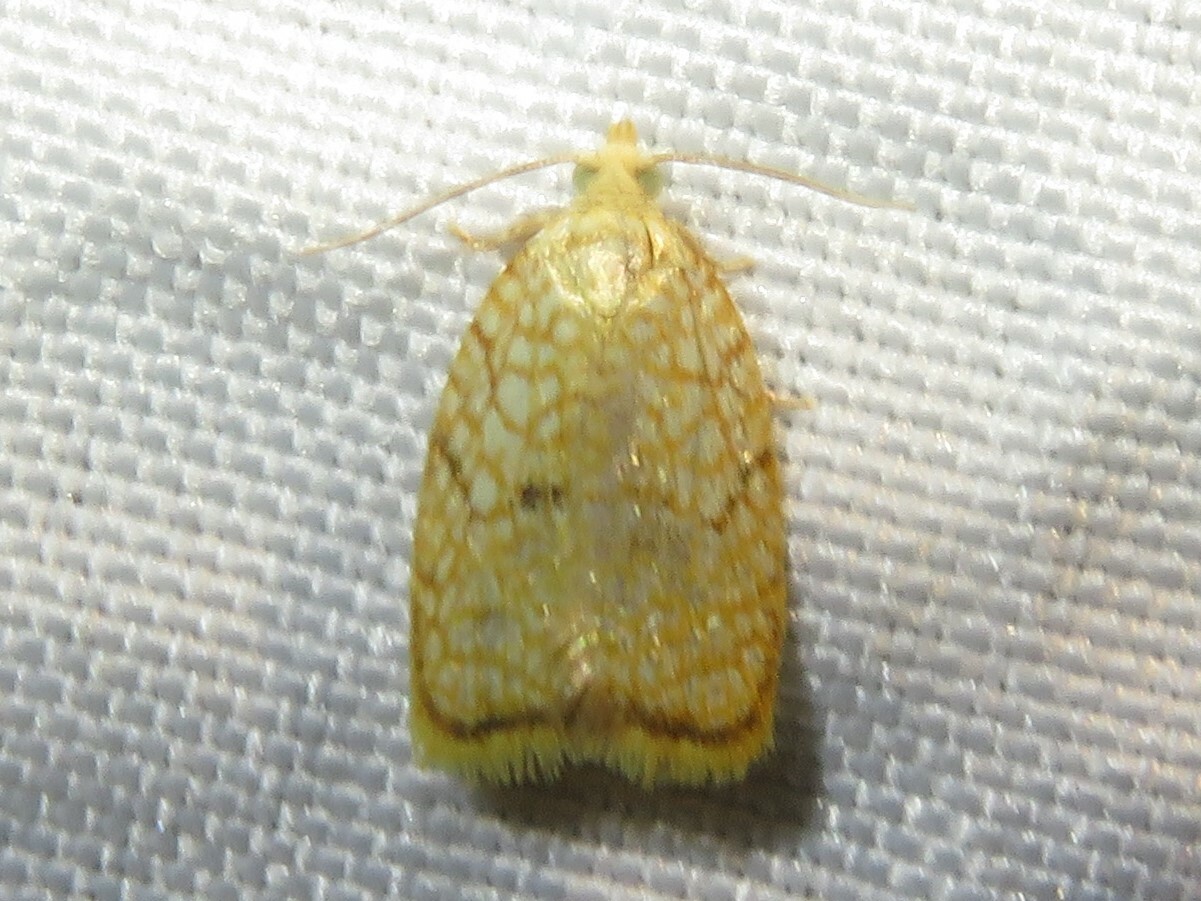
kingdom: Animalia
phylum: Arthropoda
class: Insecta
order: Lepidoptera
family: Tortricidae
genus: Acleris
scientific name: Acleris forsskaleana
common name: Maple button
